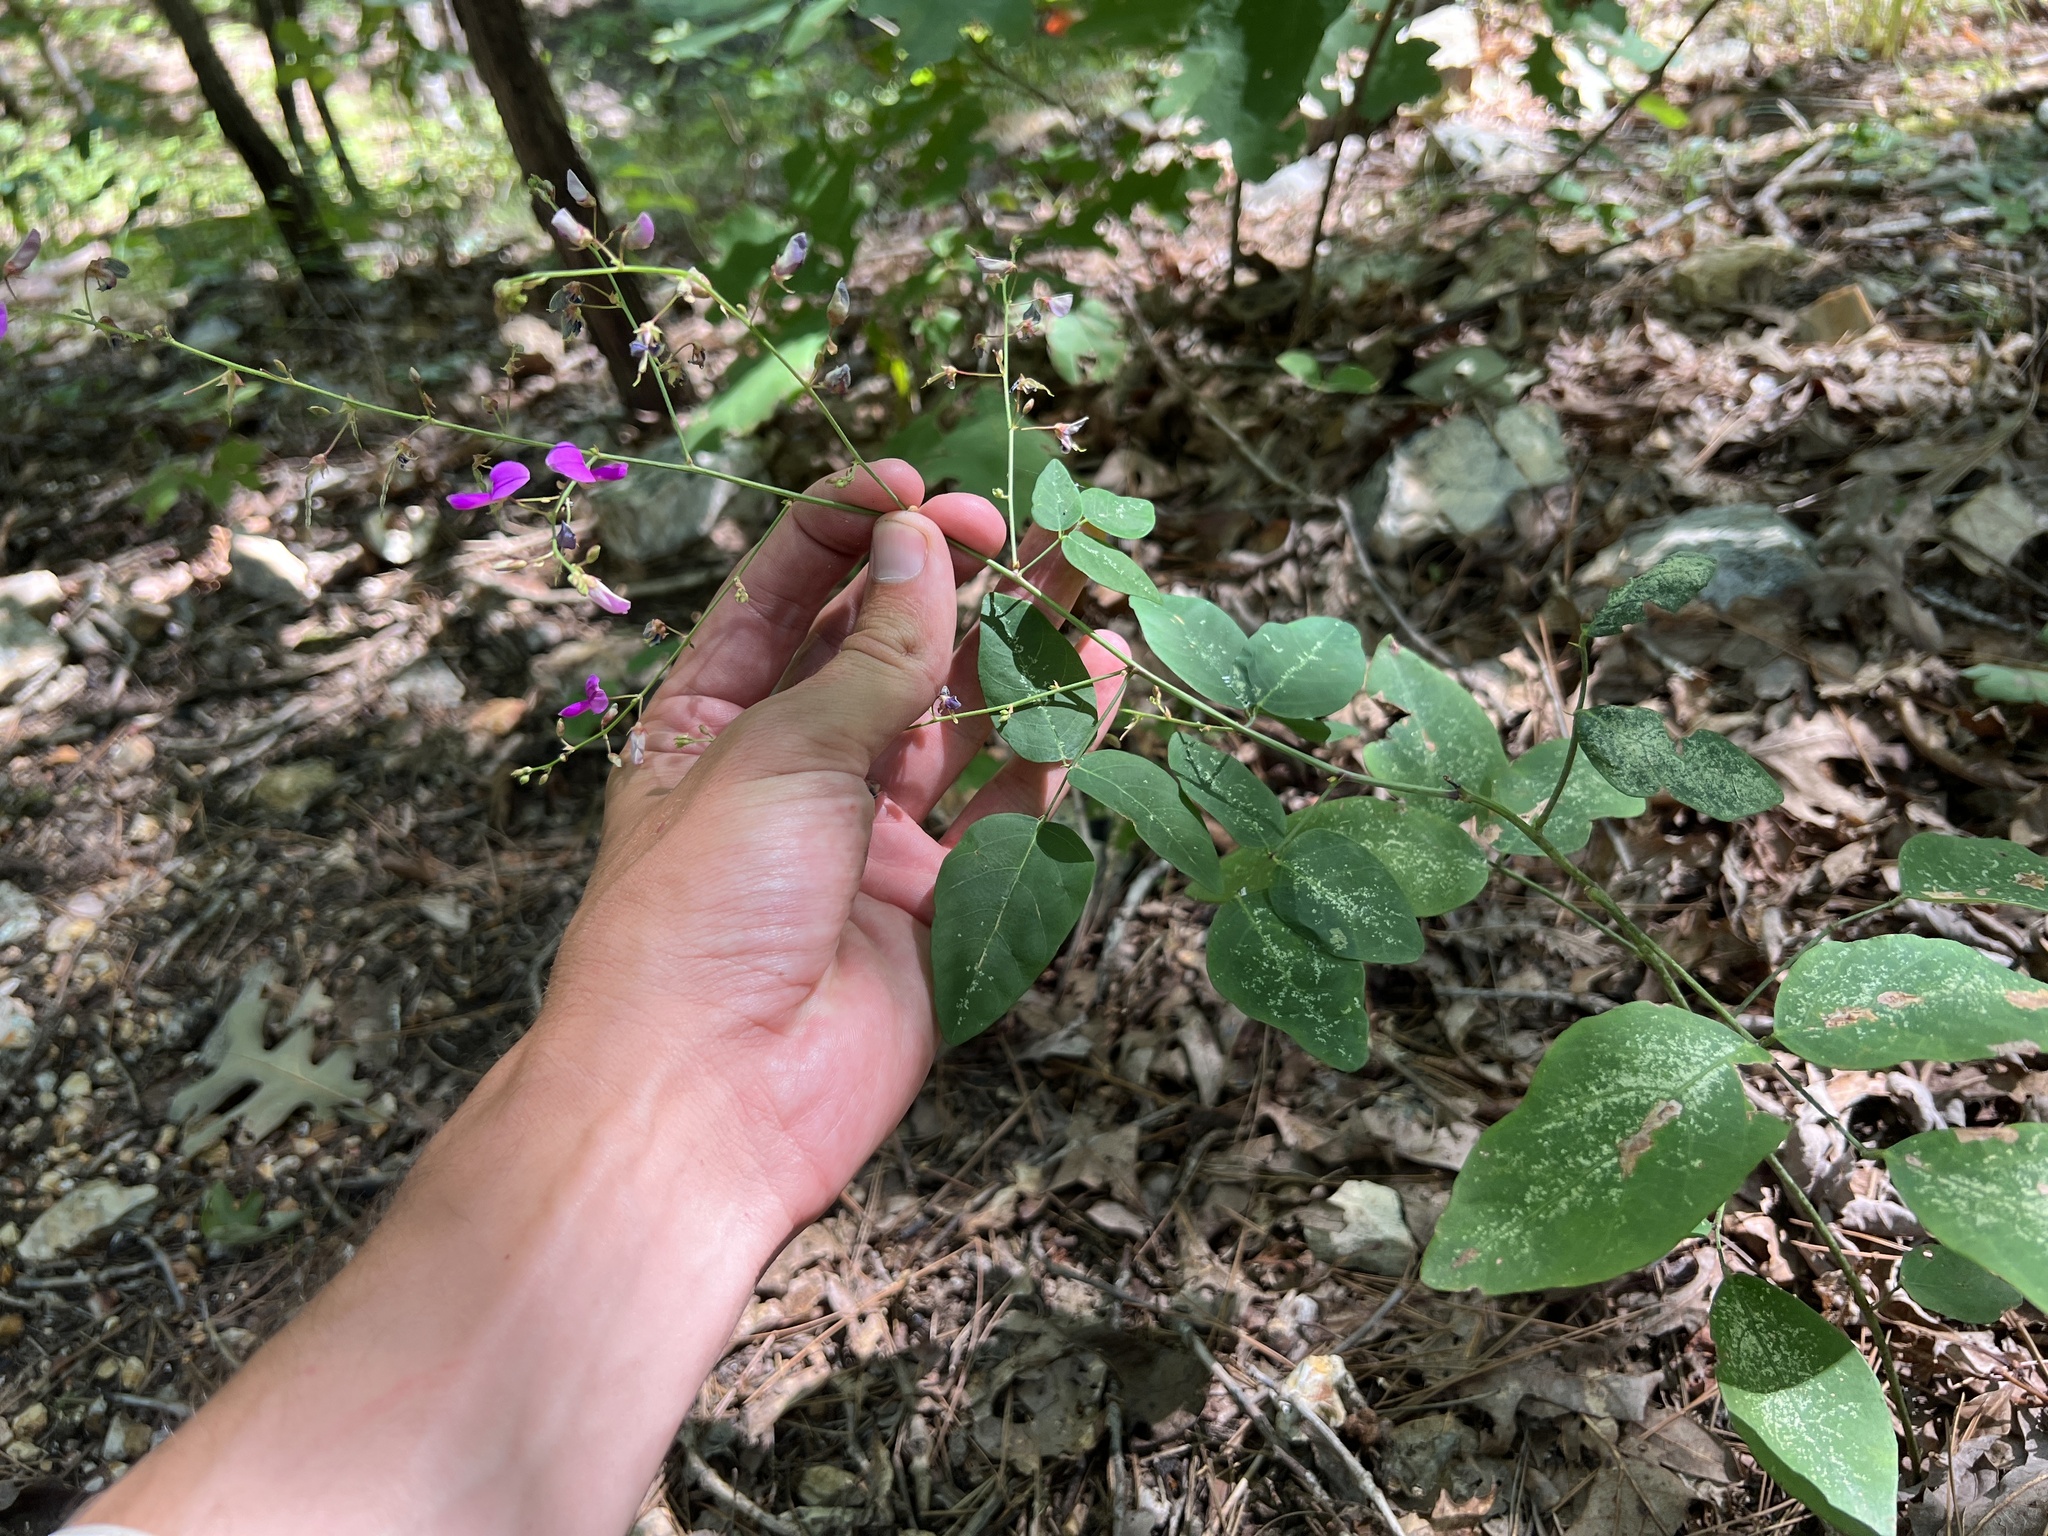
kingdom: Plantae
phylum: Tracheophyta
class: Magnoliopsida
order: Fabales
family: Fabaceae
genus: Desmodium
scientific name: Desmodium laevigatum
